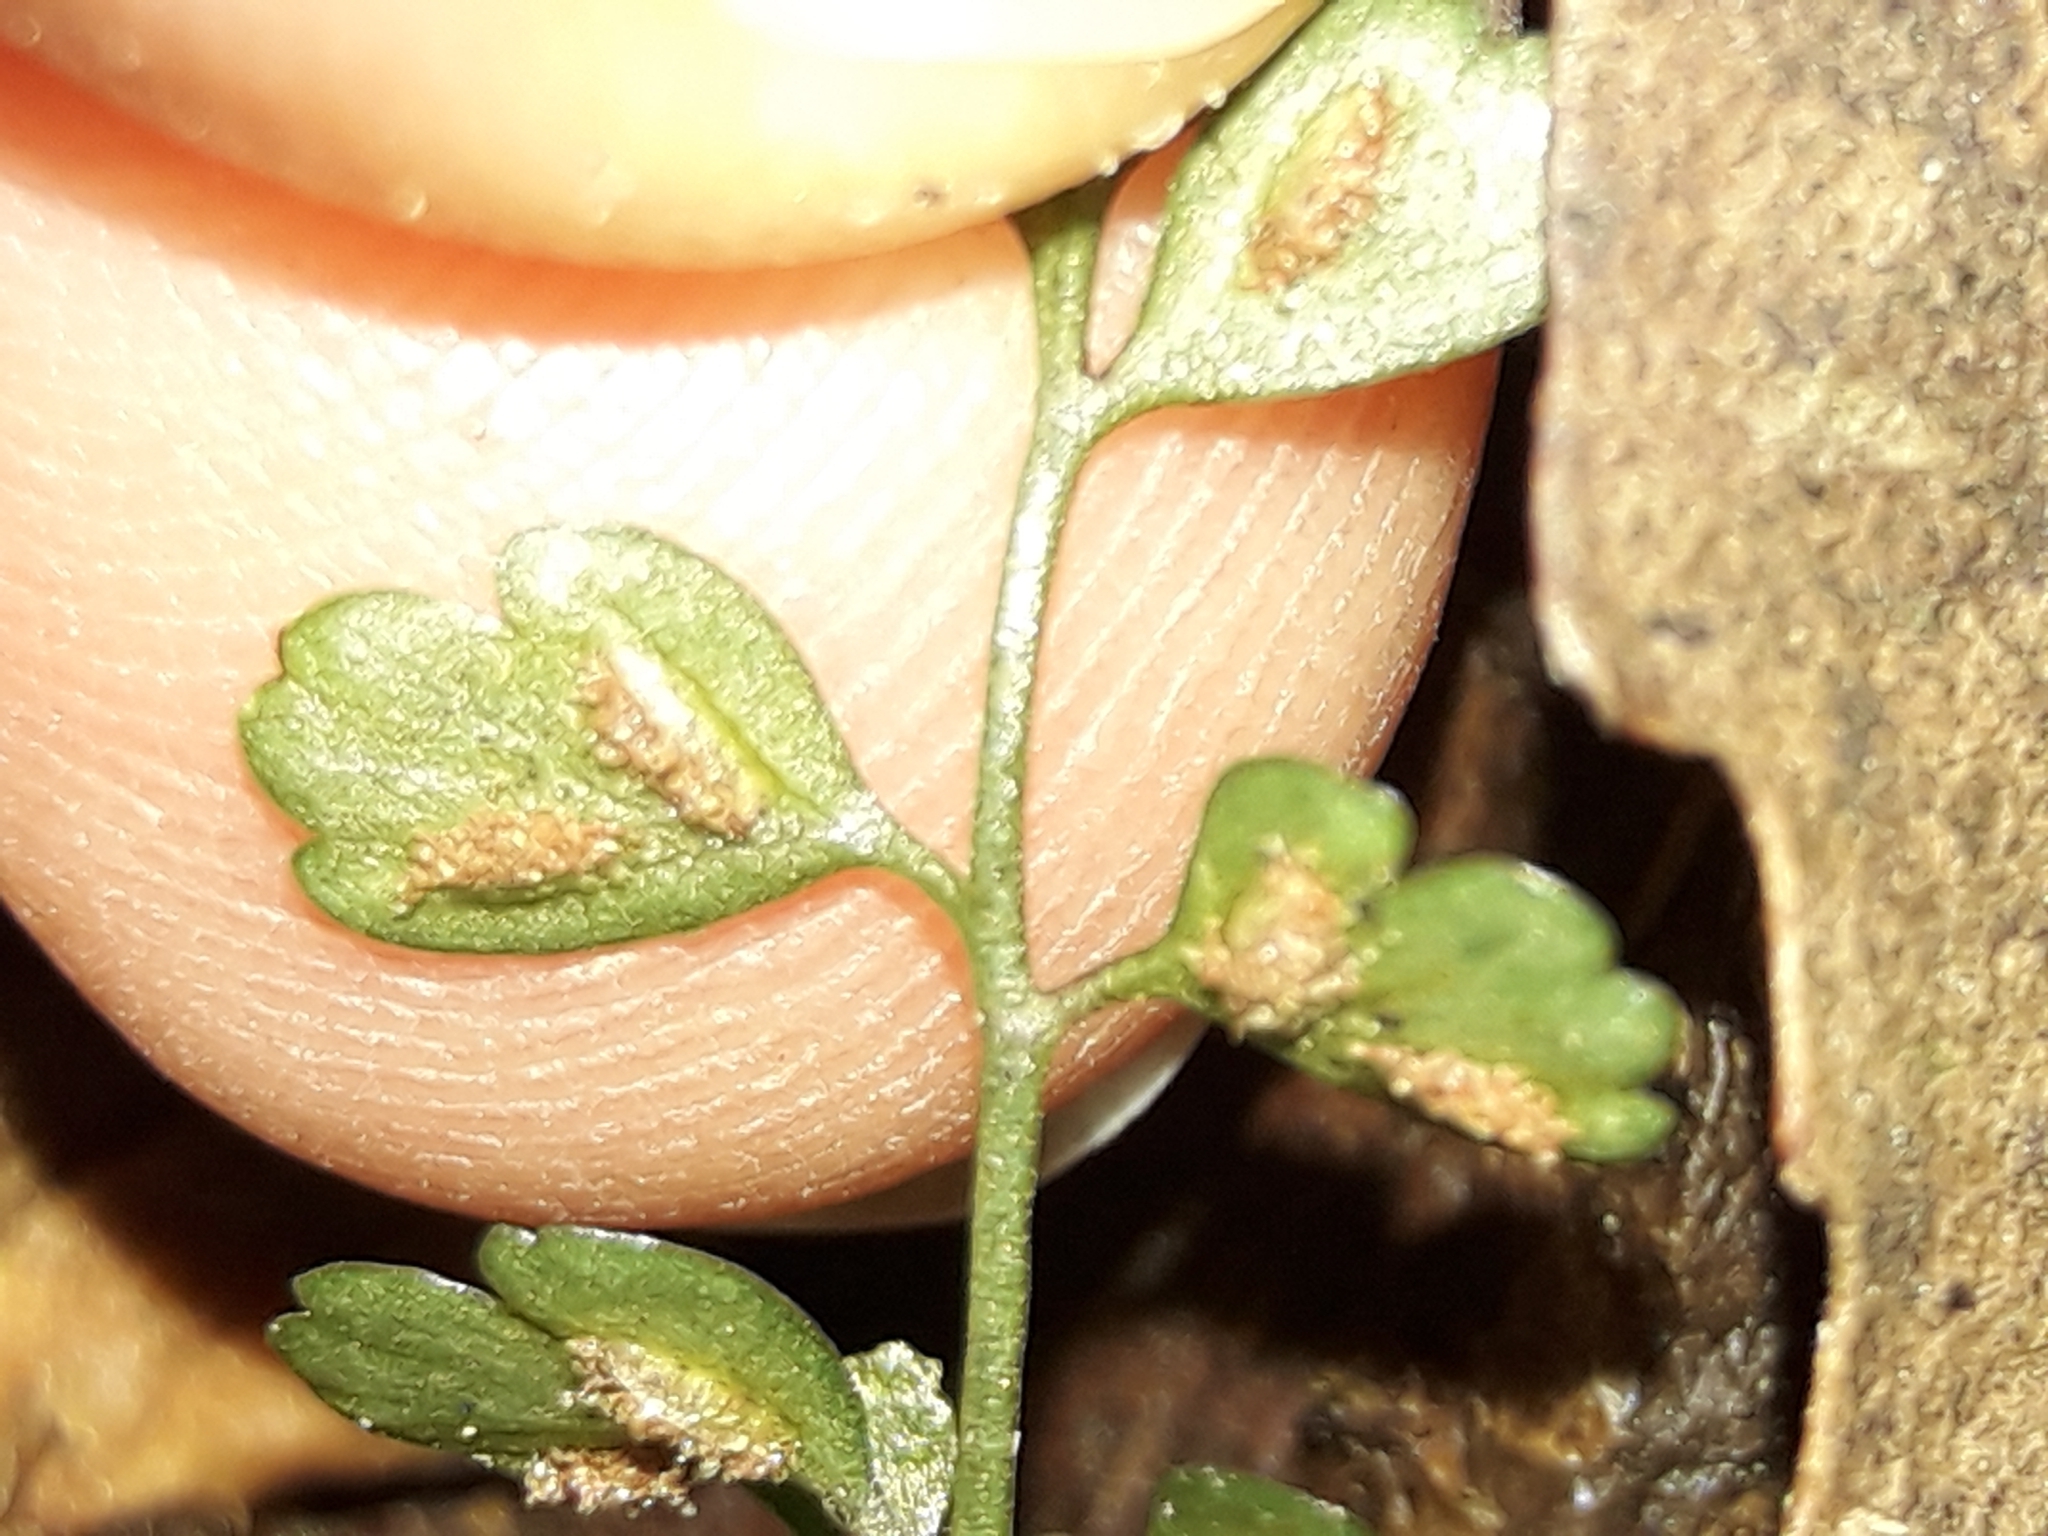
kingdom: Plantae
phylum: Tracheophyta
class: Polypodiopsida
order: Polypodiales
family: Aspleniaceae
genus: Asplenium
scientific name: Asplenium hookerianum
